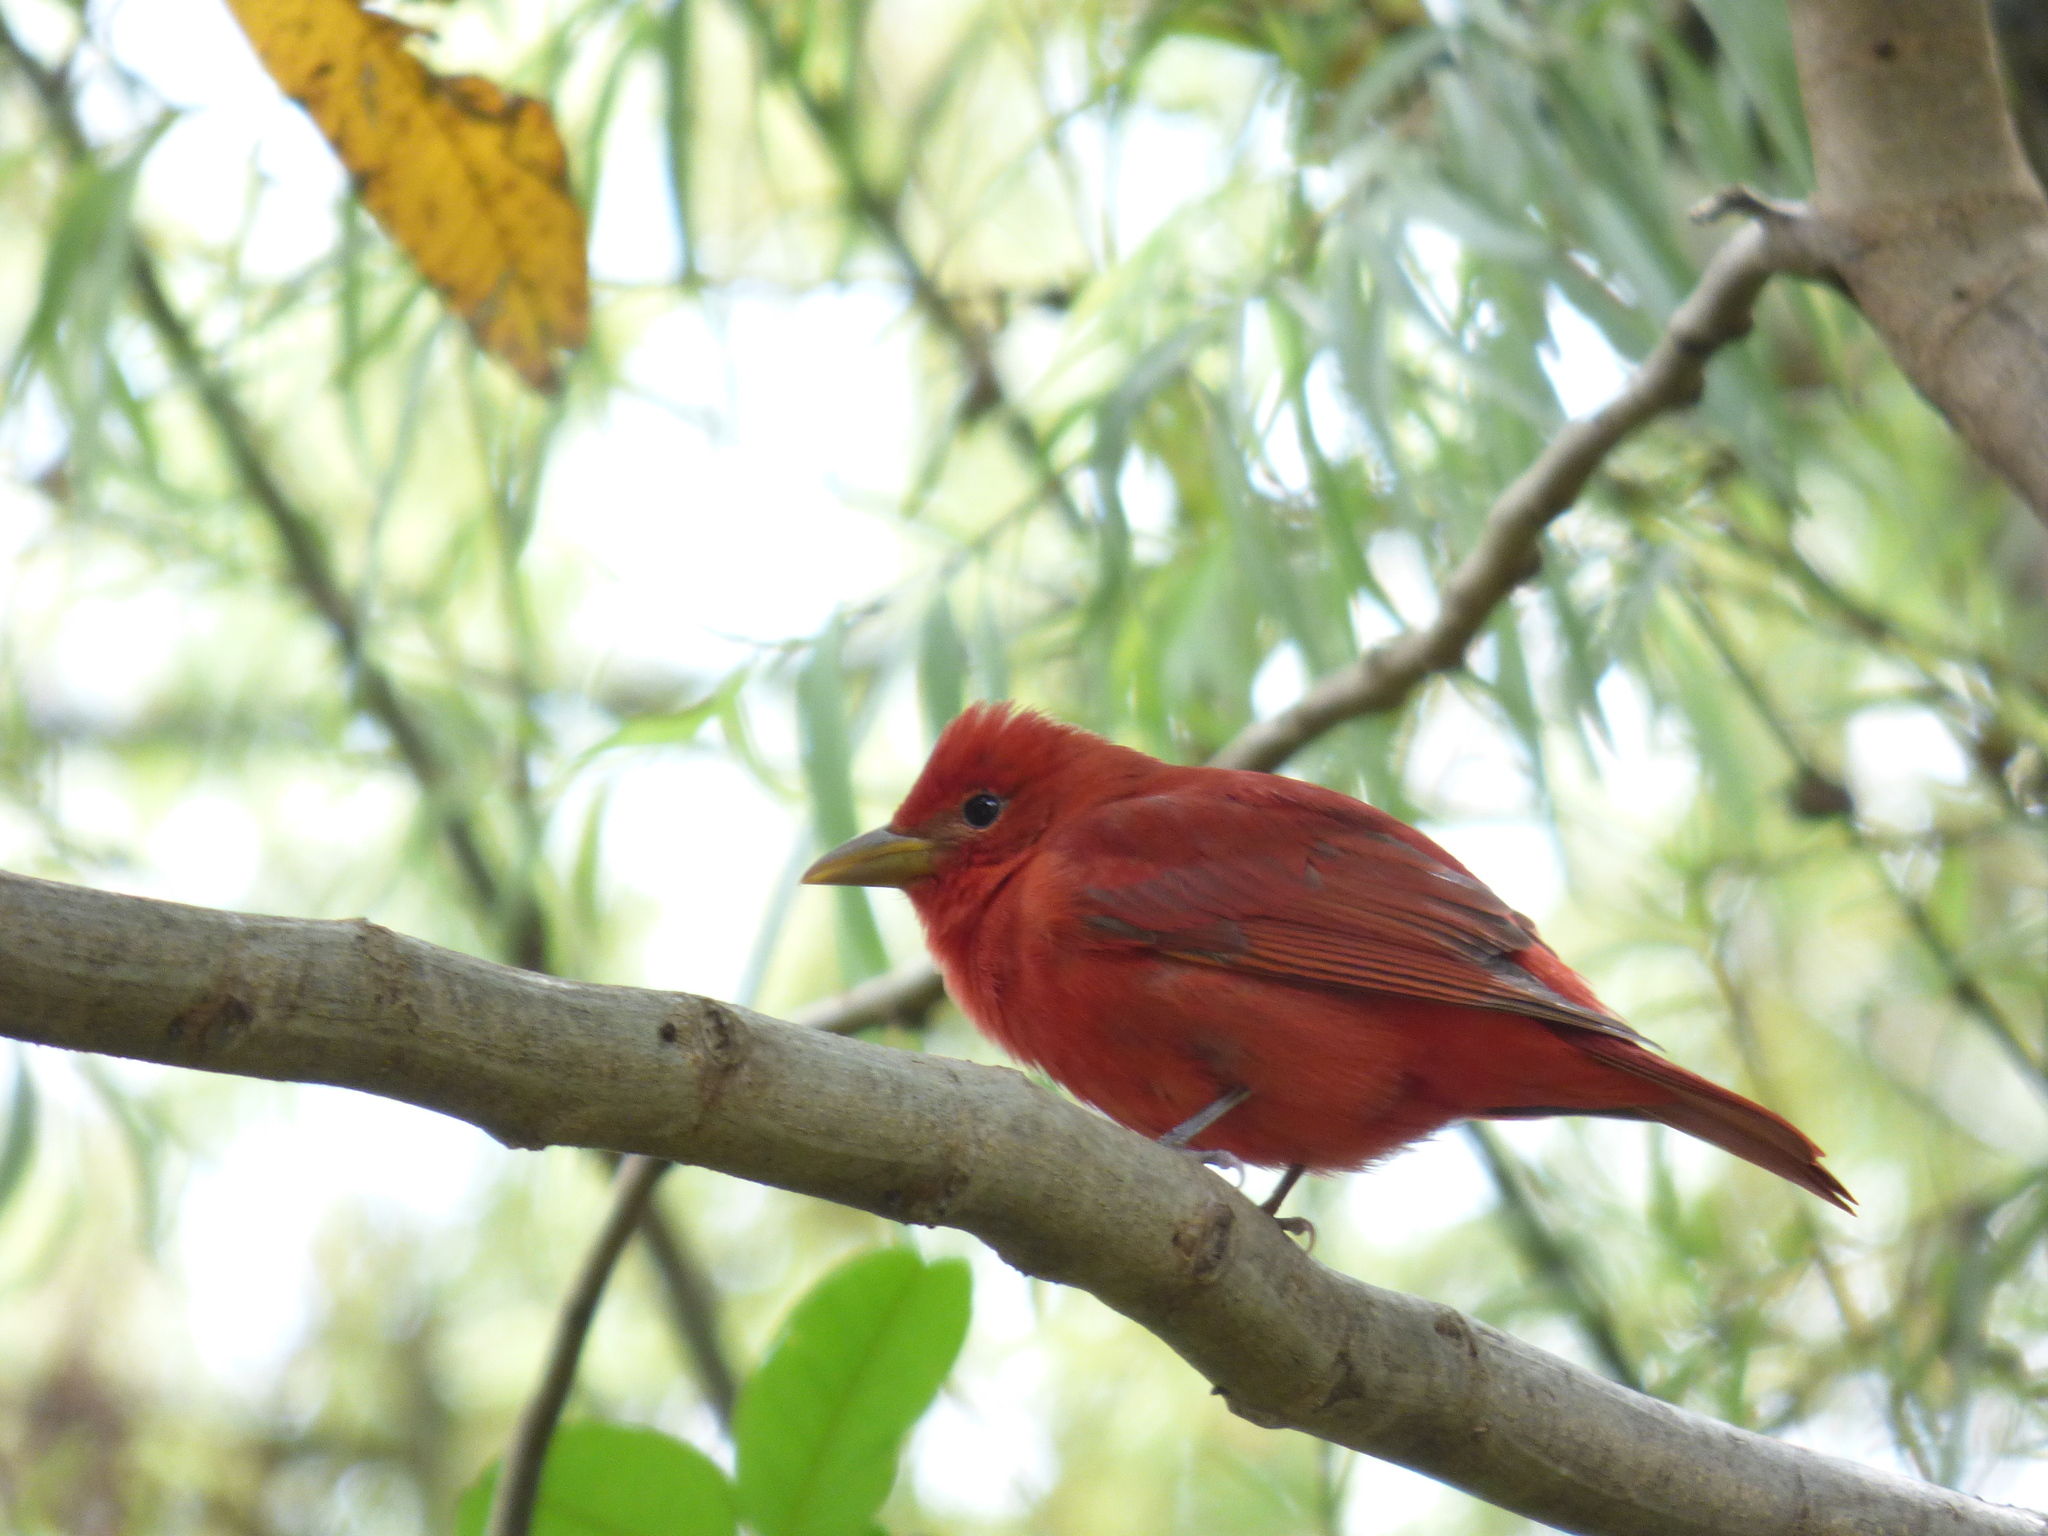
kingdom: Animalia
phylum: Chordata
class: Aves
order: Passeriformes
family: Cardinalidae
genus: Piranga
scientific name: Piranga rubra
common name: Summer tanager
